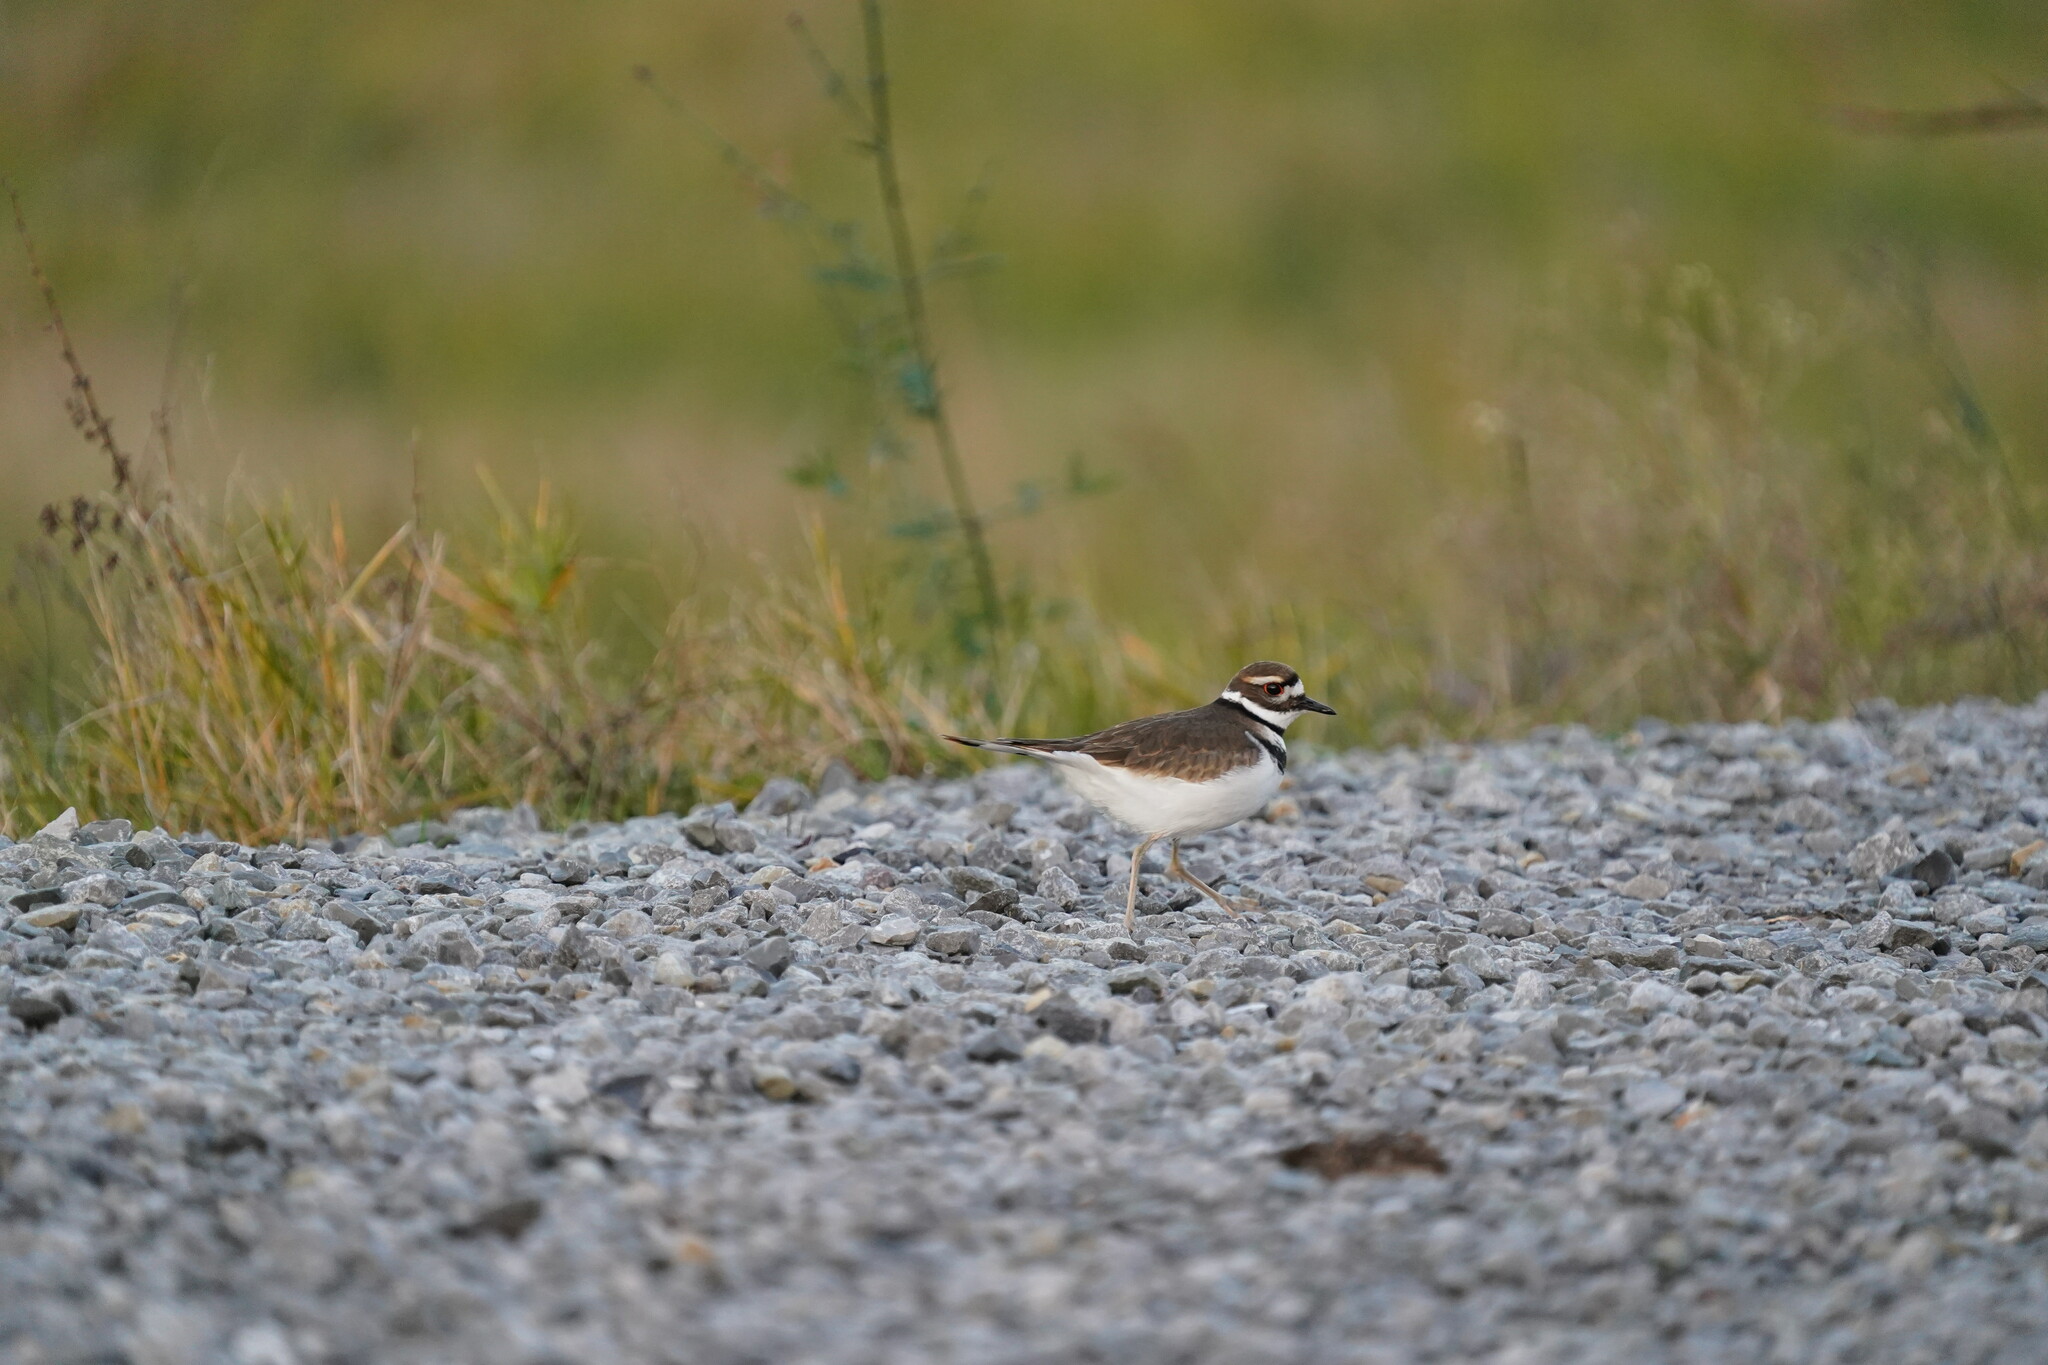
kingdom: Animalia
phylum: Chordata
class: Aves
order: Charadriiformes
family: Charadriidae
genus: Charadrius
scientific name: Charadrius vociferus
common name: Killdeer
